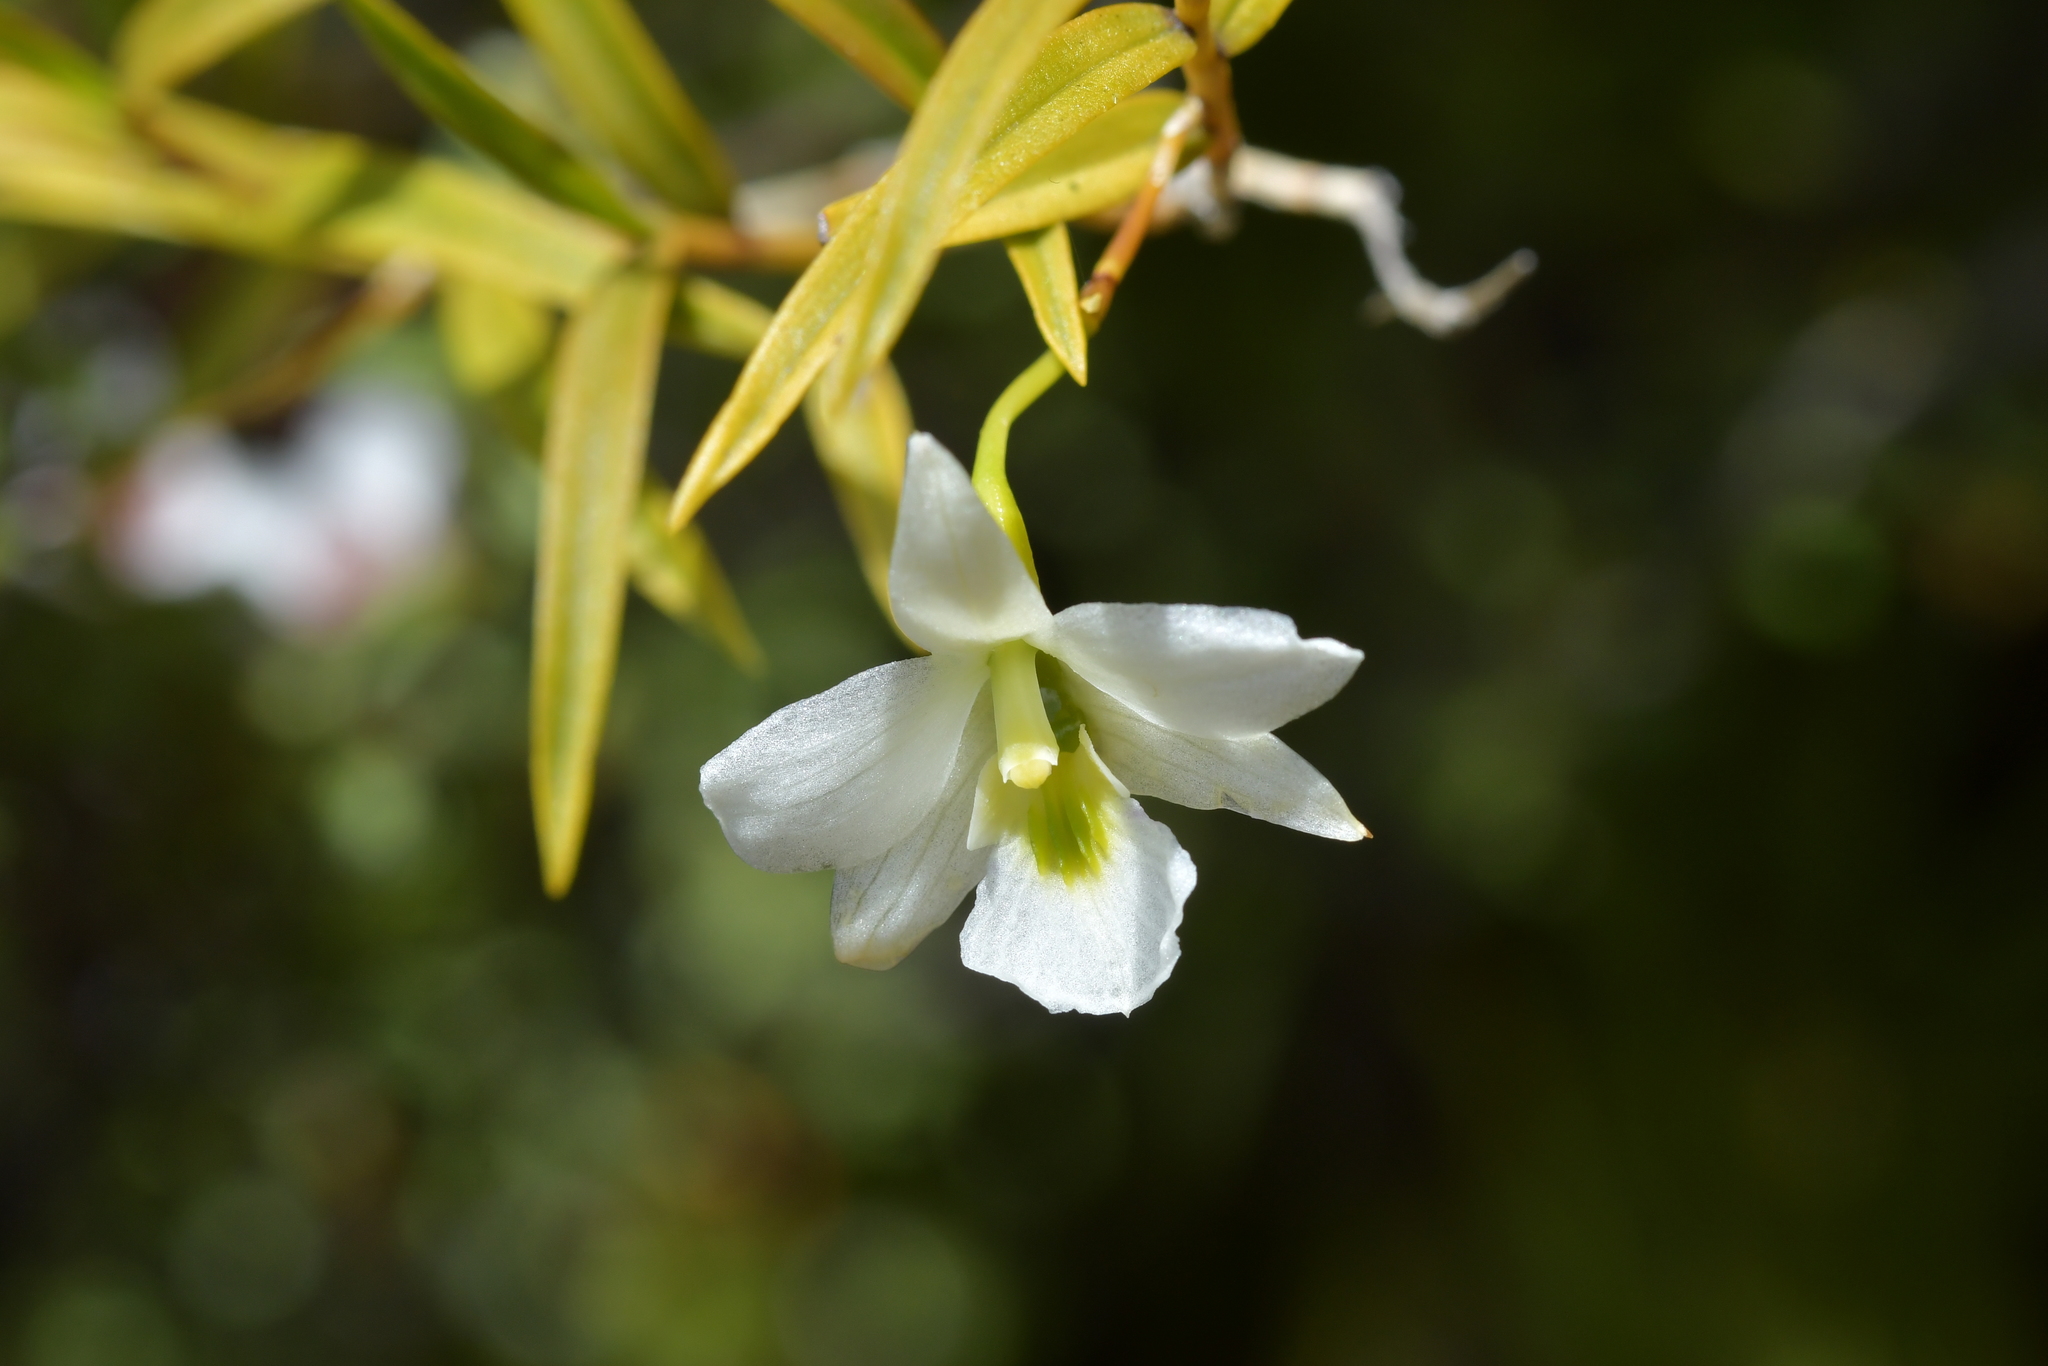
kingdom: Plantae
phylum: Tracheophyta
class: Liliopsida
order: Asparagales
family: Orchidaceae
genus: Dendrobium
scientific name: Dendrobium cunninghamii
